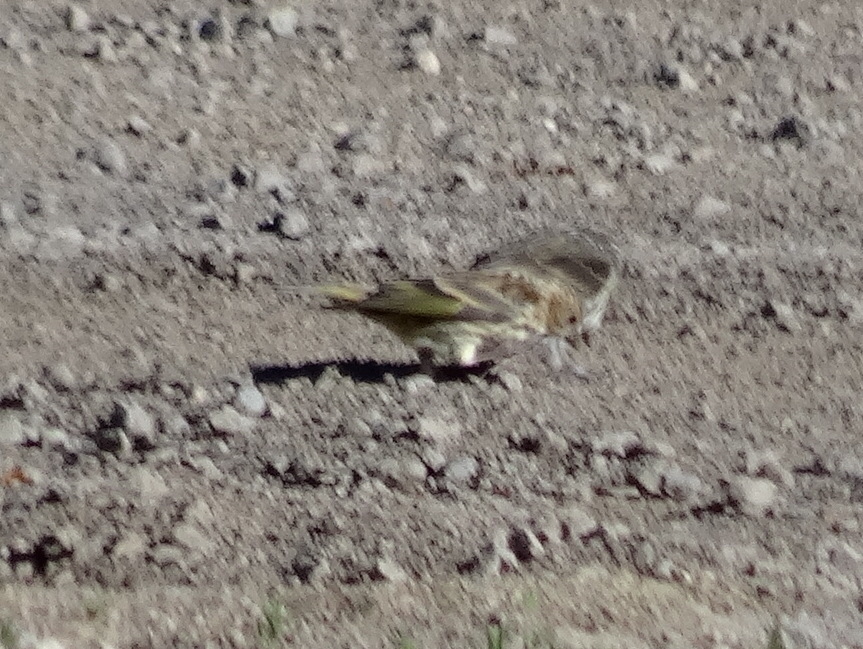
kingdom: Animalia
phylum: Chordata
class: Aves
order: Passeriformes
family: Fringillidae
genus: Spinus
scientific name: Spinus pinus
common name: Pine siskin
